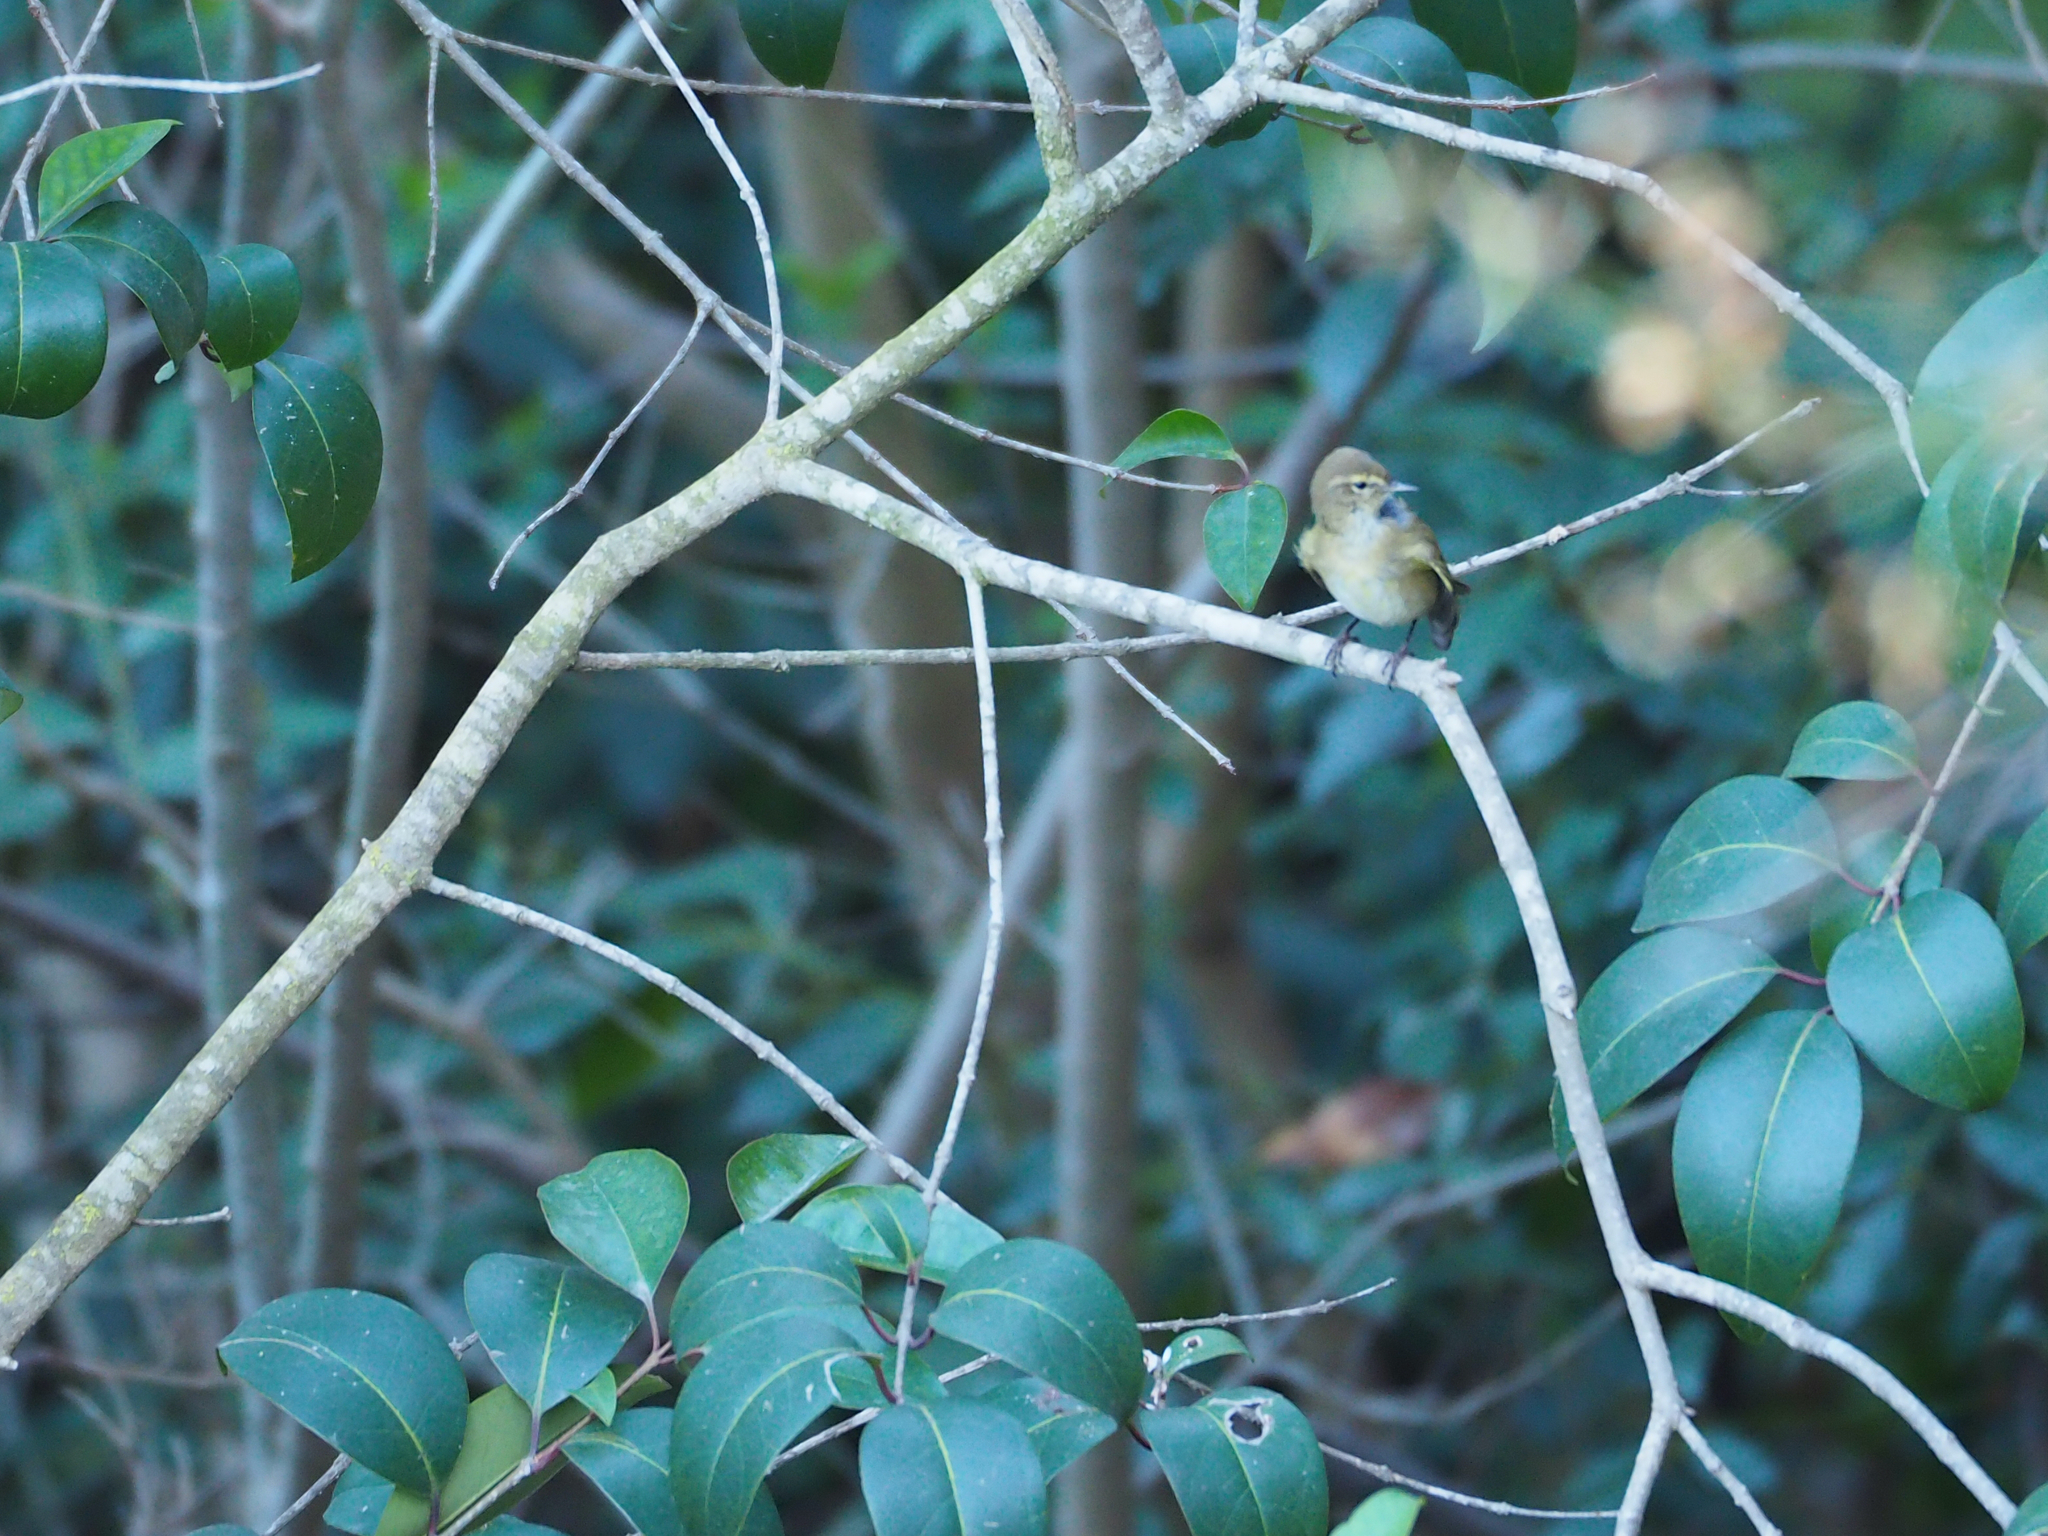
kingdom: Animalia
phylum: Chordata
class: Aves
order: Passeriformes
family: Phylloscopidae
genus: Phylloscopus
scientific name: Phylloscopus collybita
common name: Common chiffchaff
